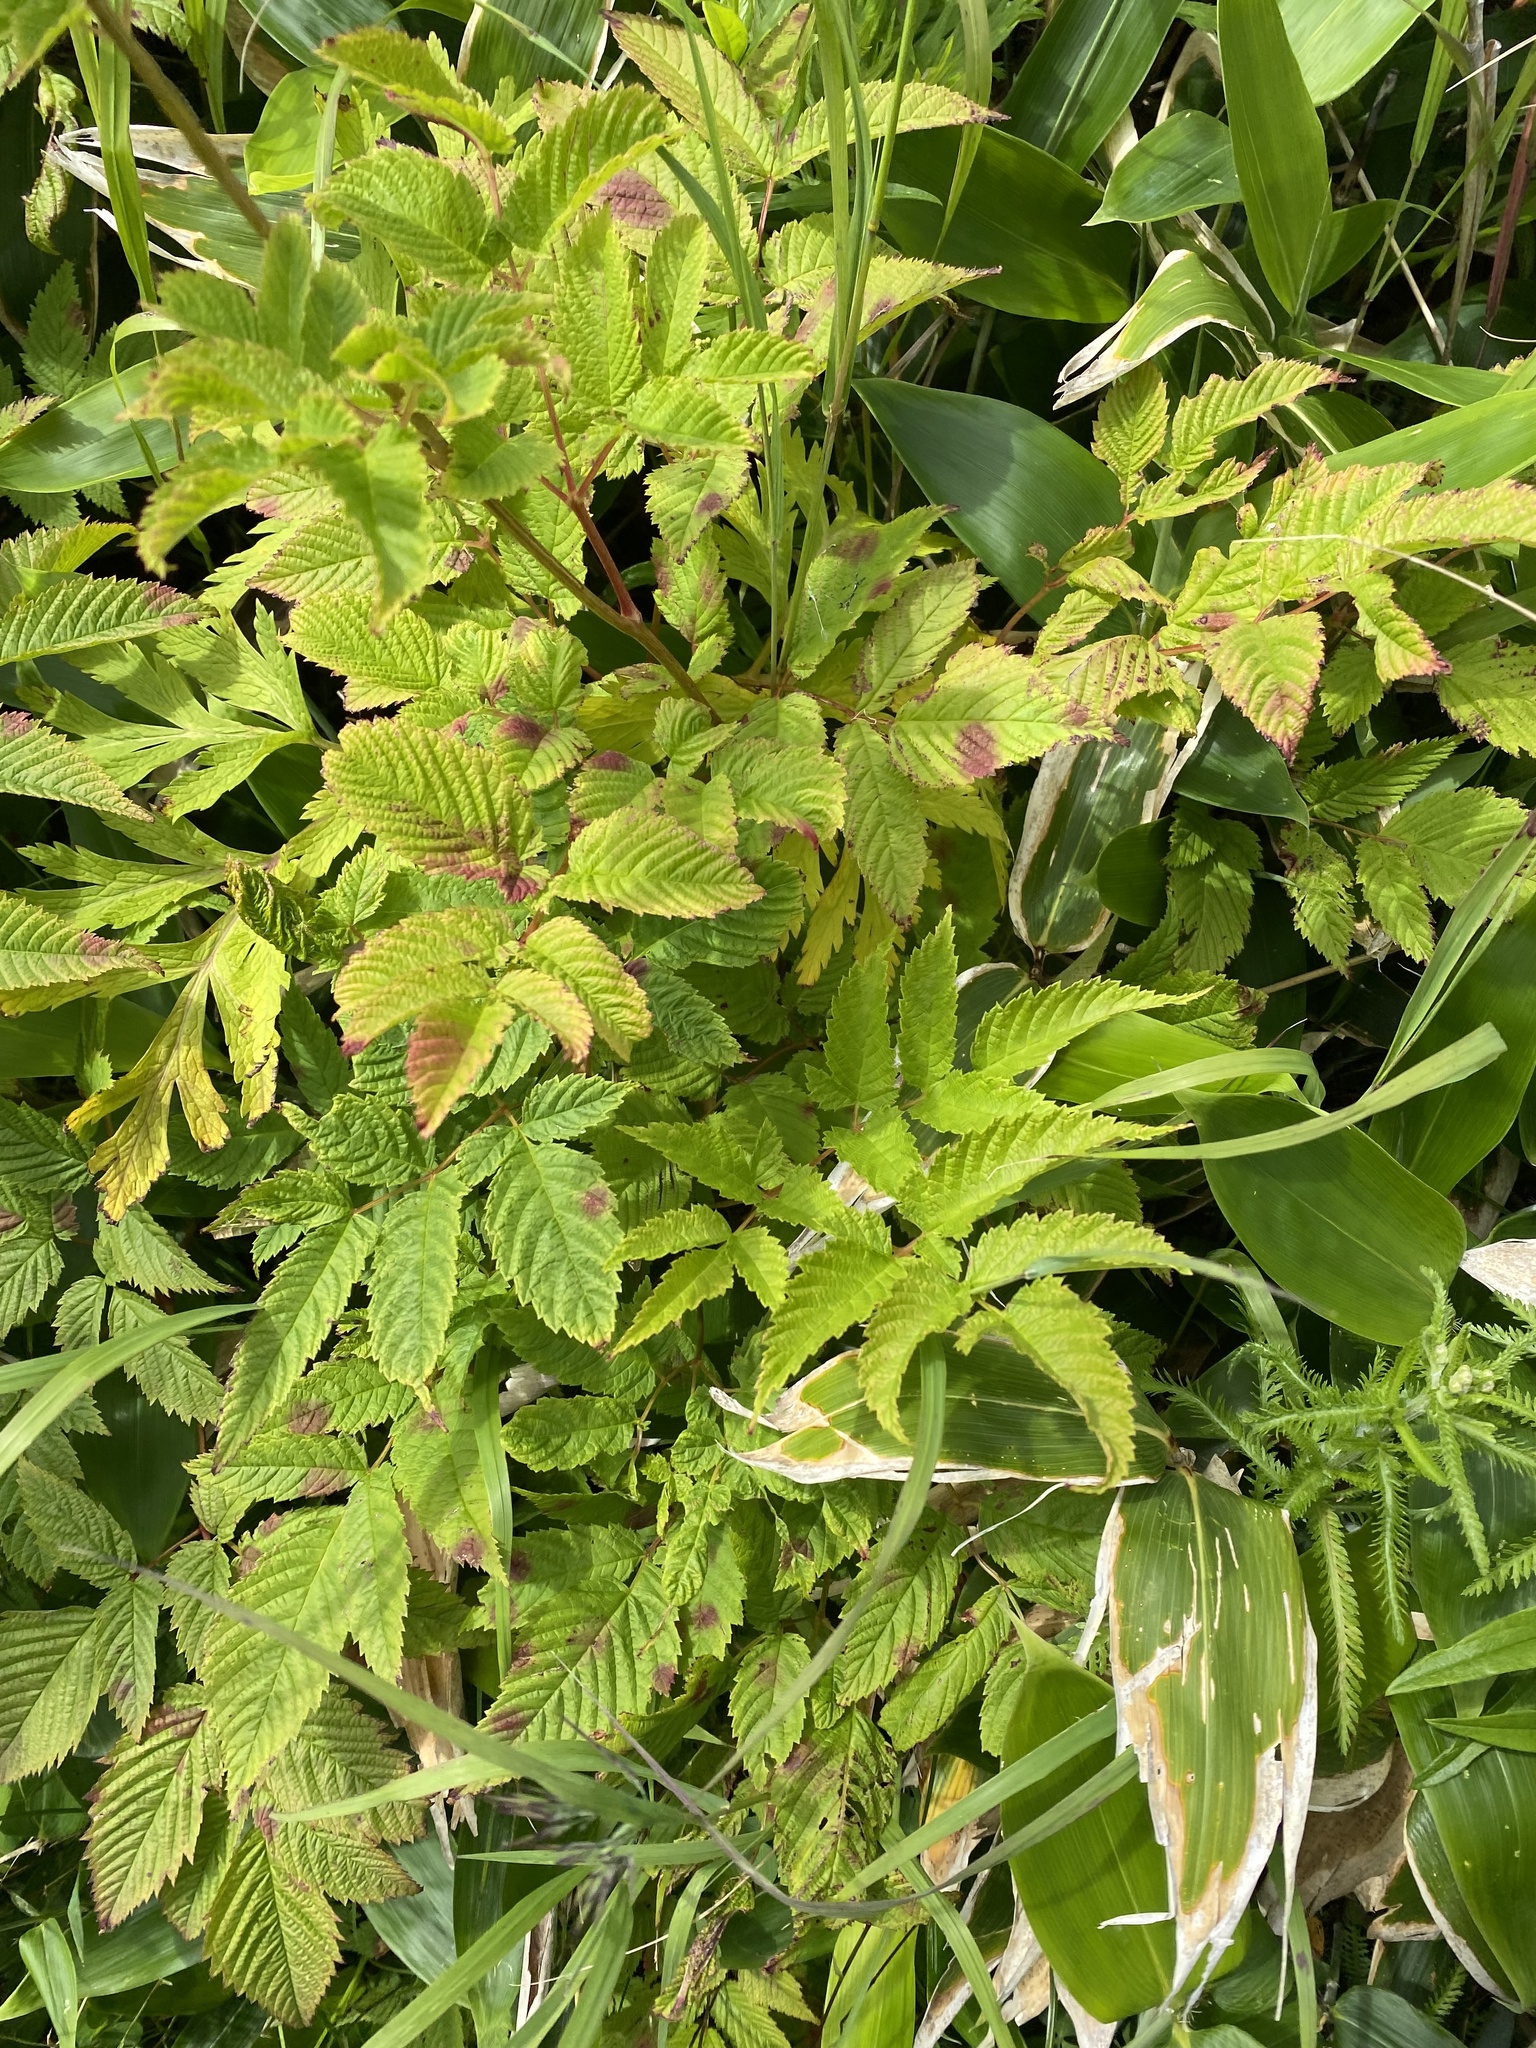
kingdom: Plantae
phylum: Tracheophyta
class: Magnoliopsida
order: Rosales
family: Rosaceae
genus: Aruncus
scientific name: Aruncus dioicus
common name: Buck's-beard
